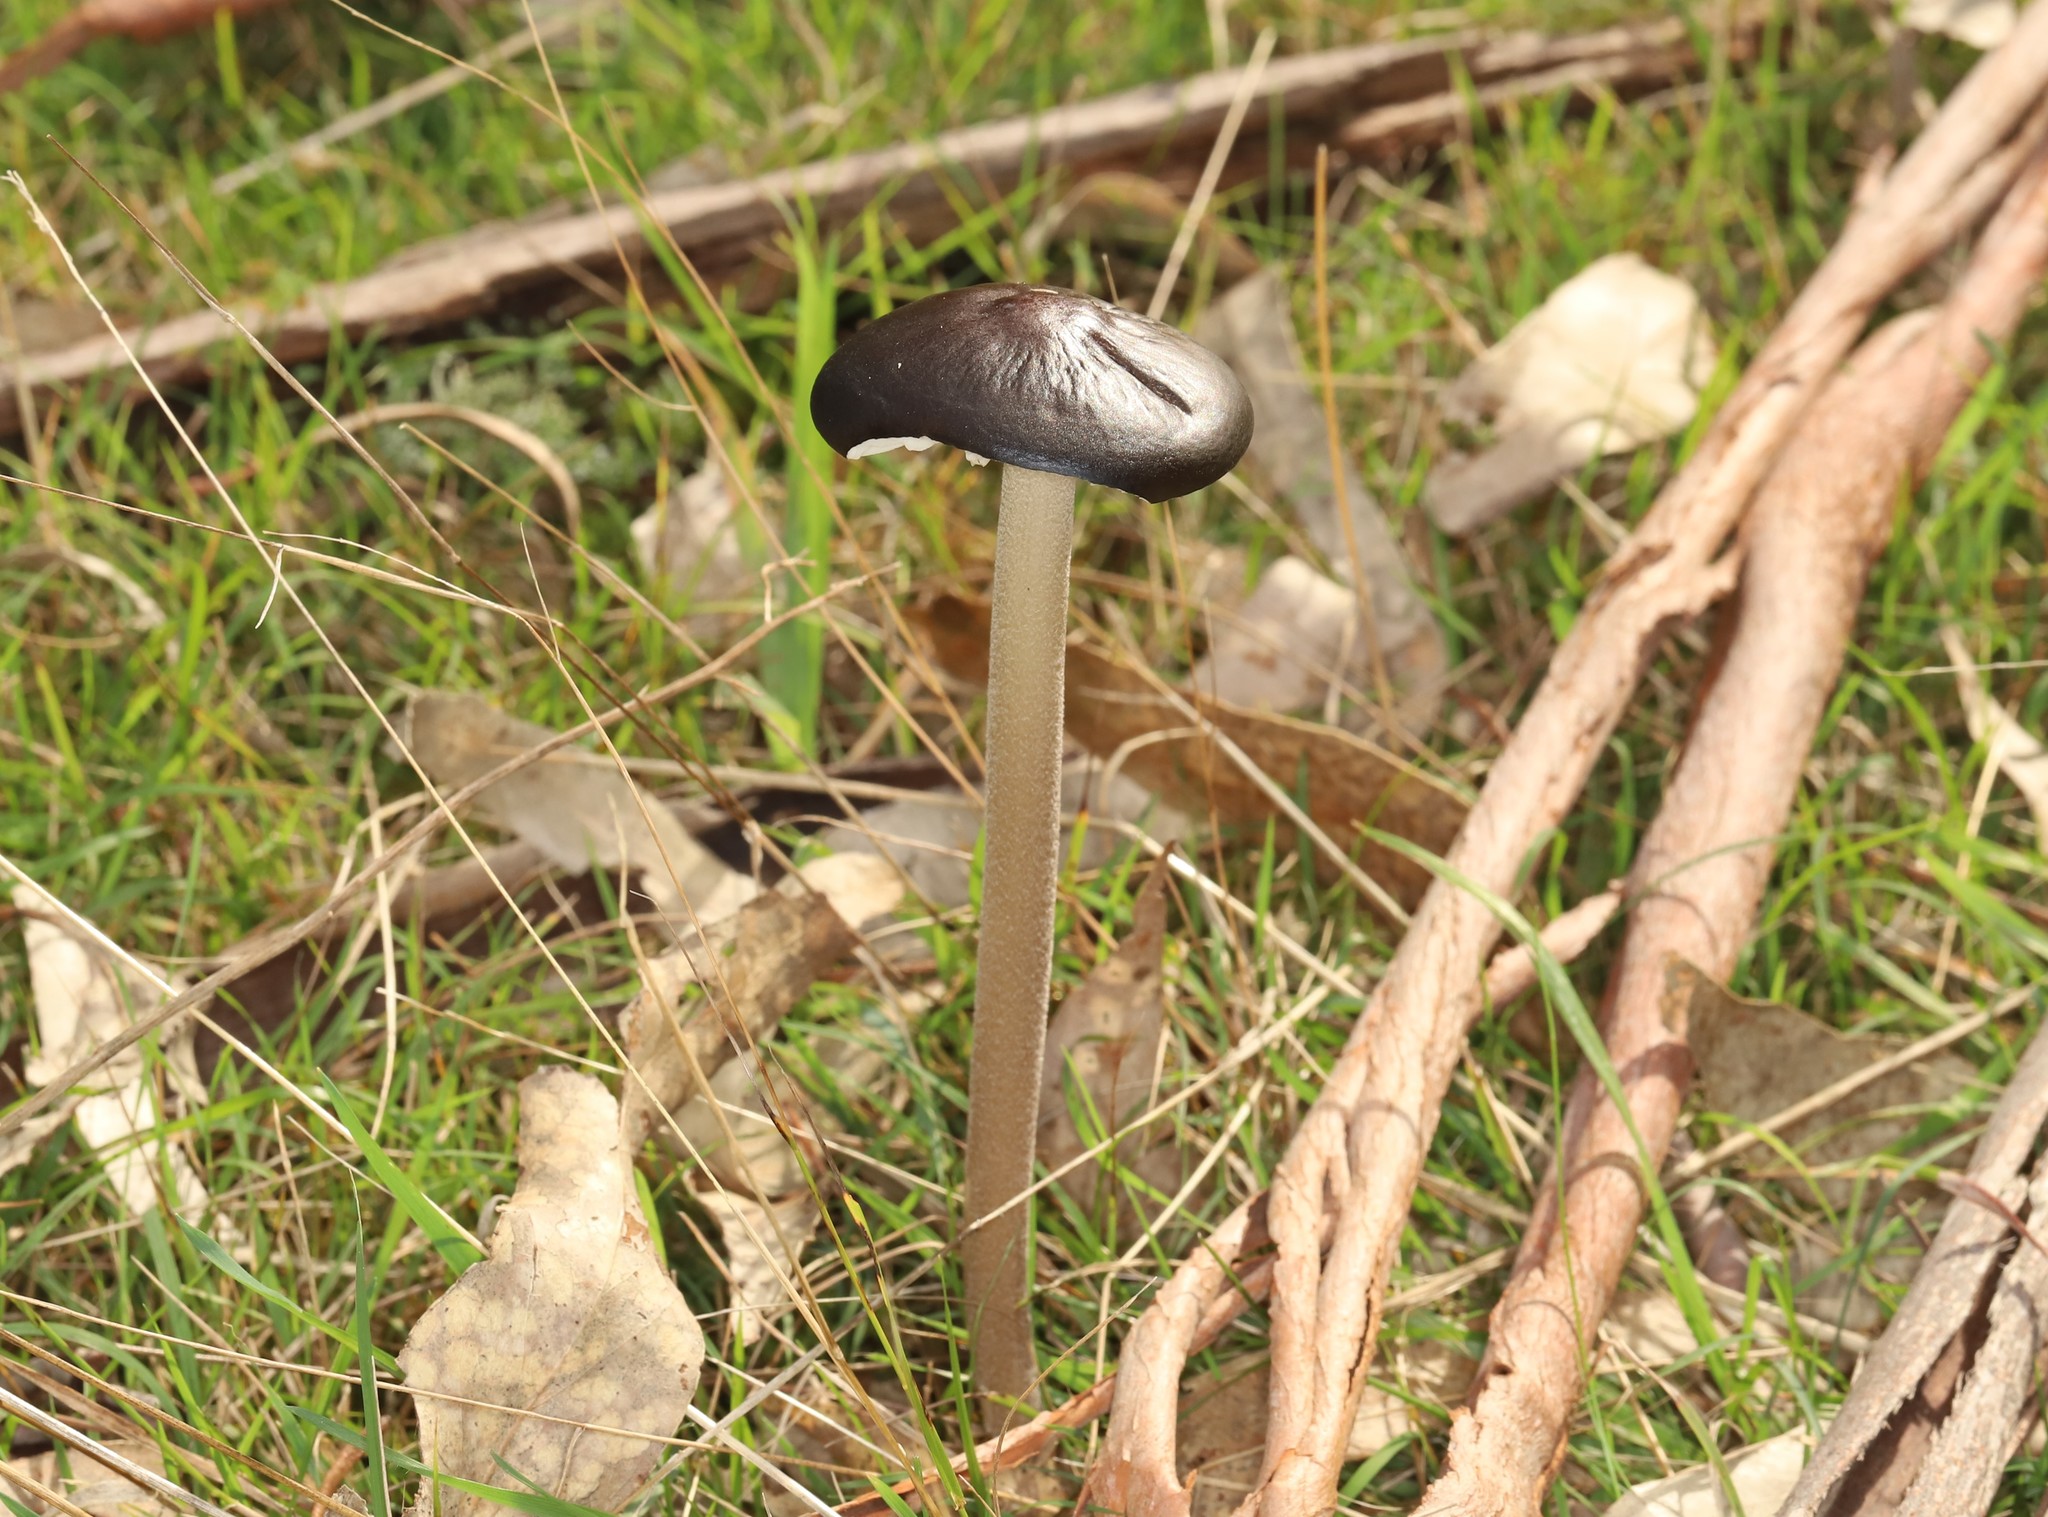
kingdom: Fungi
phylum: Basidiomycota
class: Agaricomycetes
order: Agaricales
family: Physalacriaceae
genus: Hymenopellis
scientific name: Hymenopellis gigaspora
